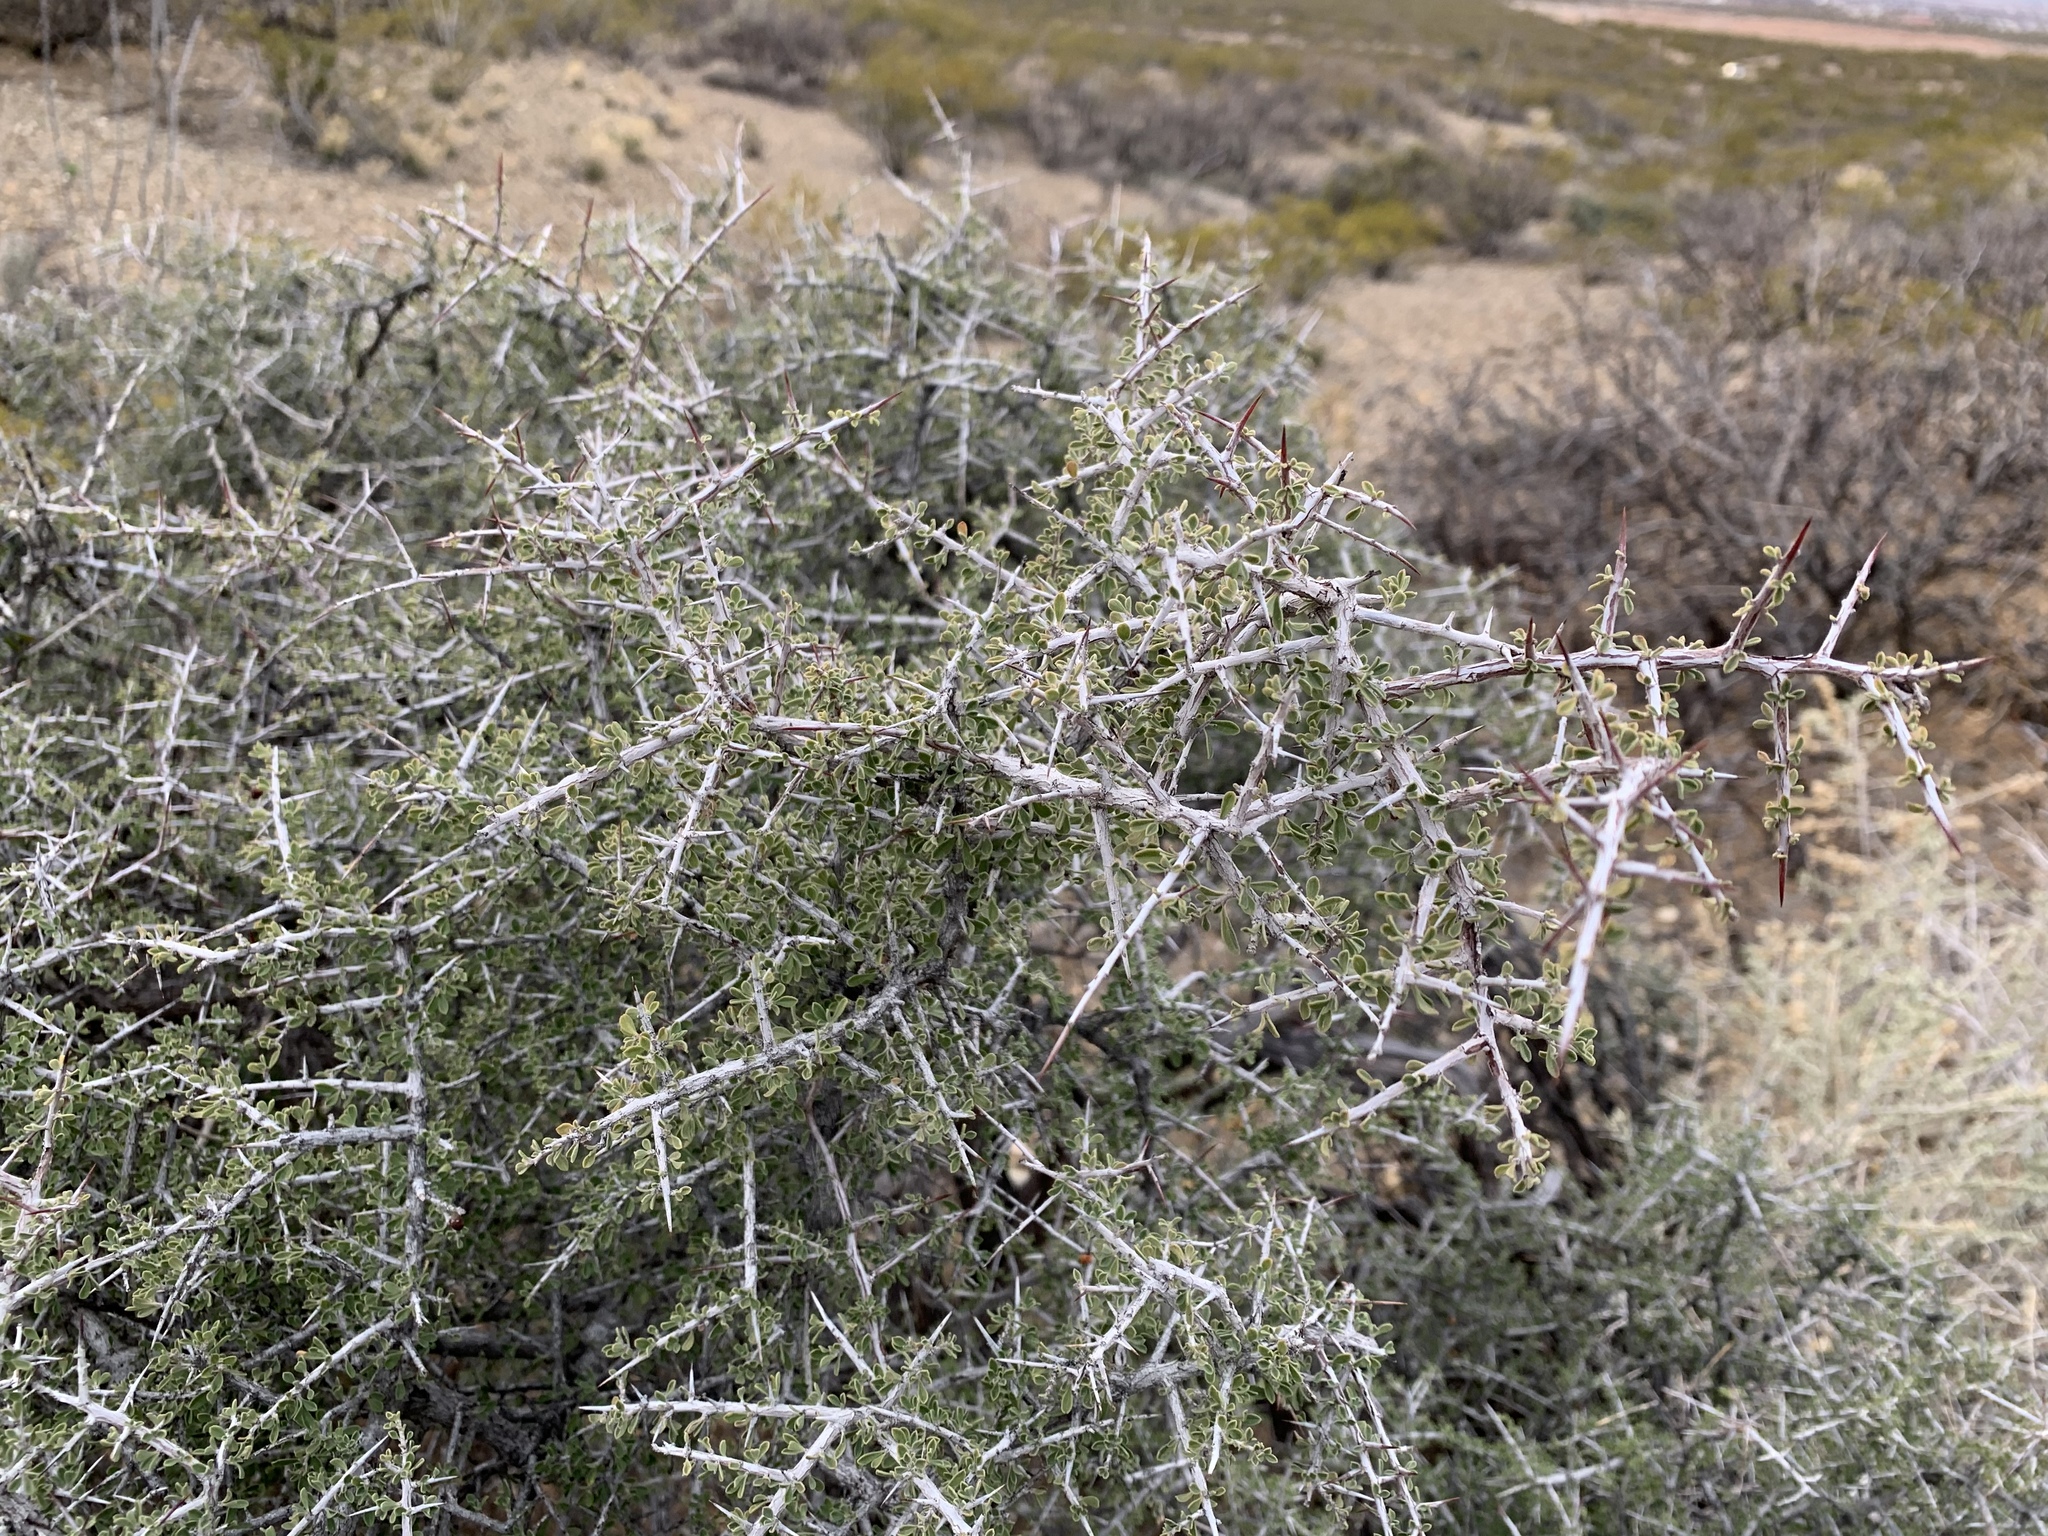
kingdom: Plantae
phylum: Tracheophyta
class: Magnoliopsida
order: Rosales
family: Rhamnaceae
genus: Condalia
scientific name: Condalia warnockii
